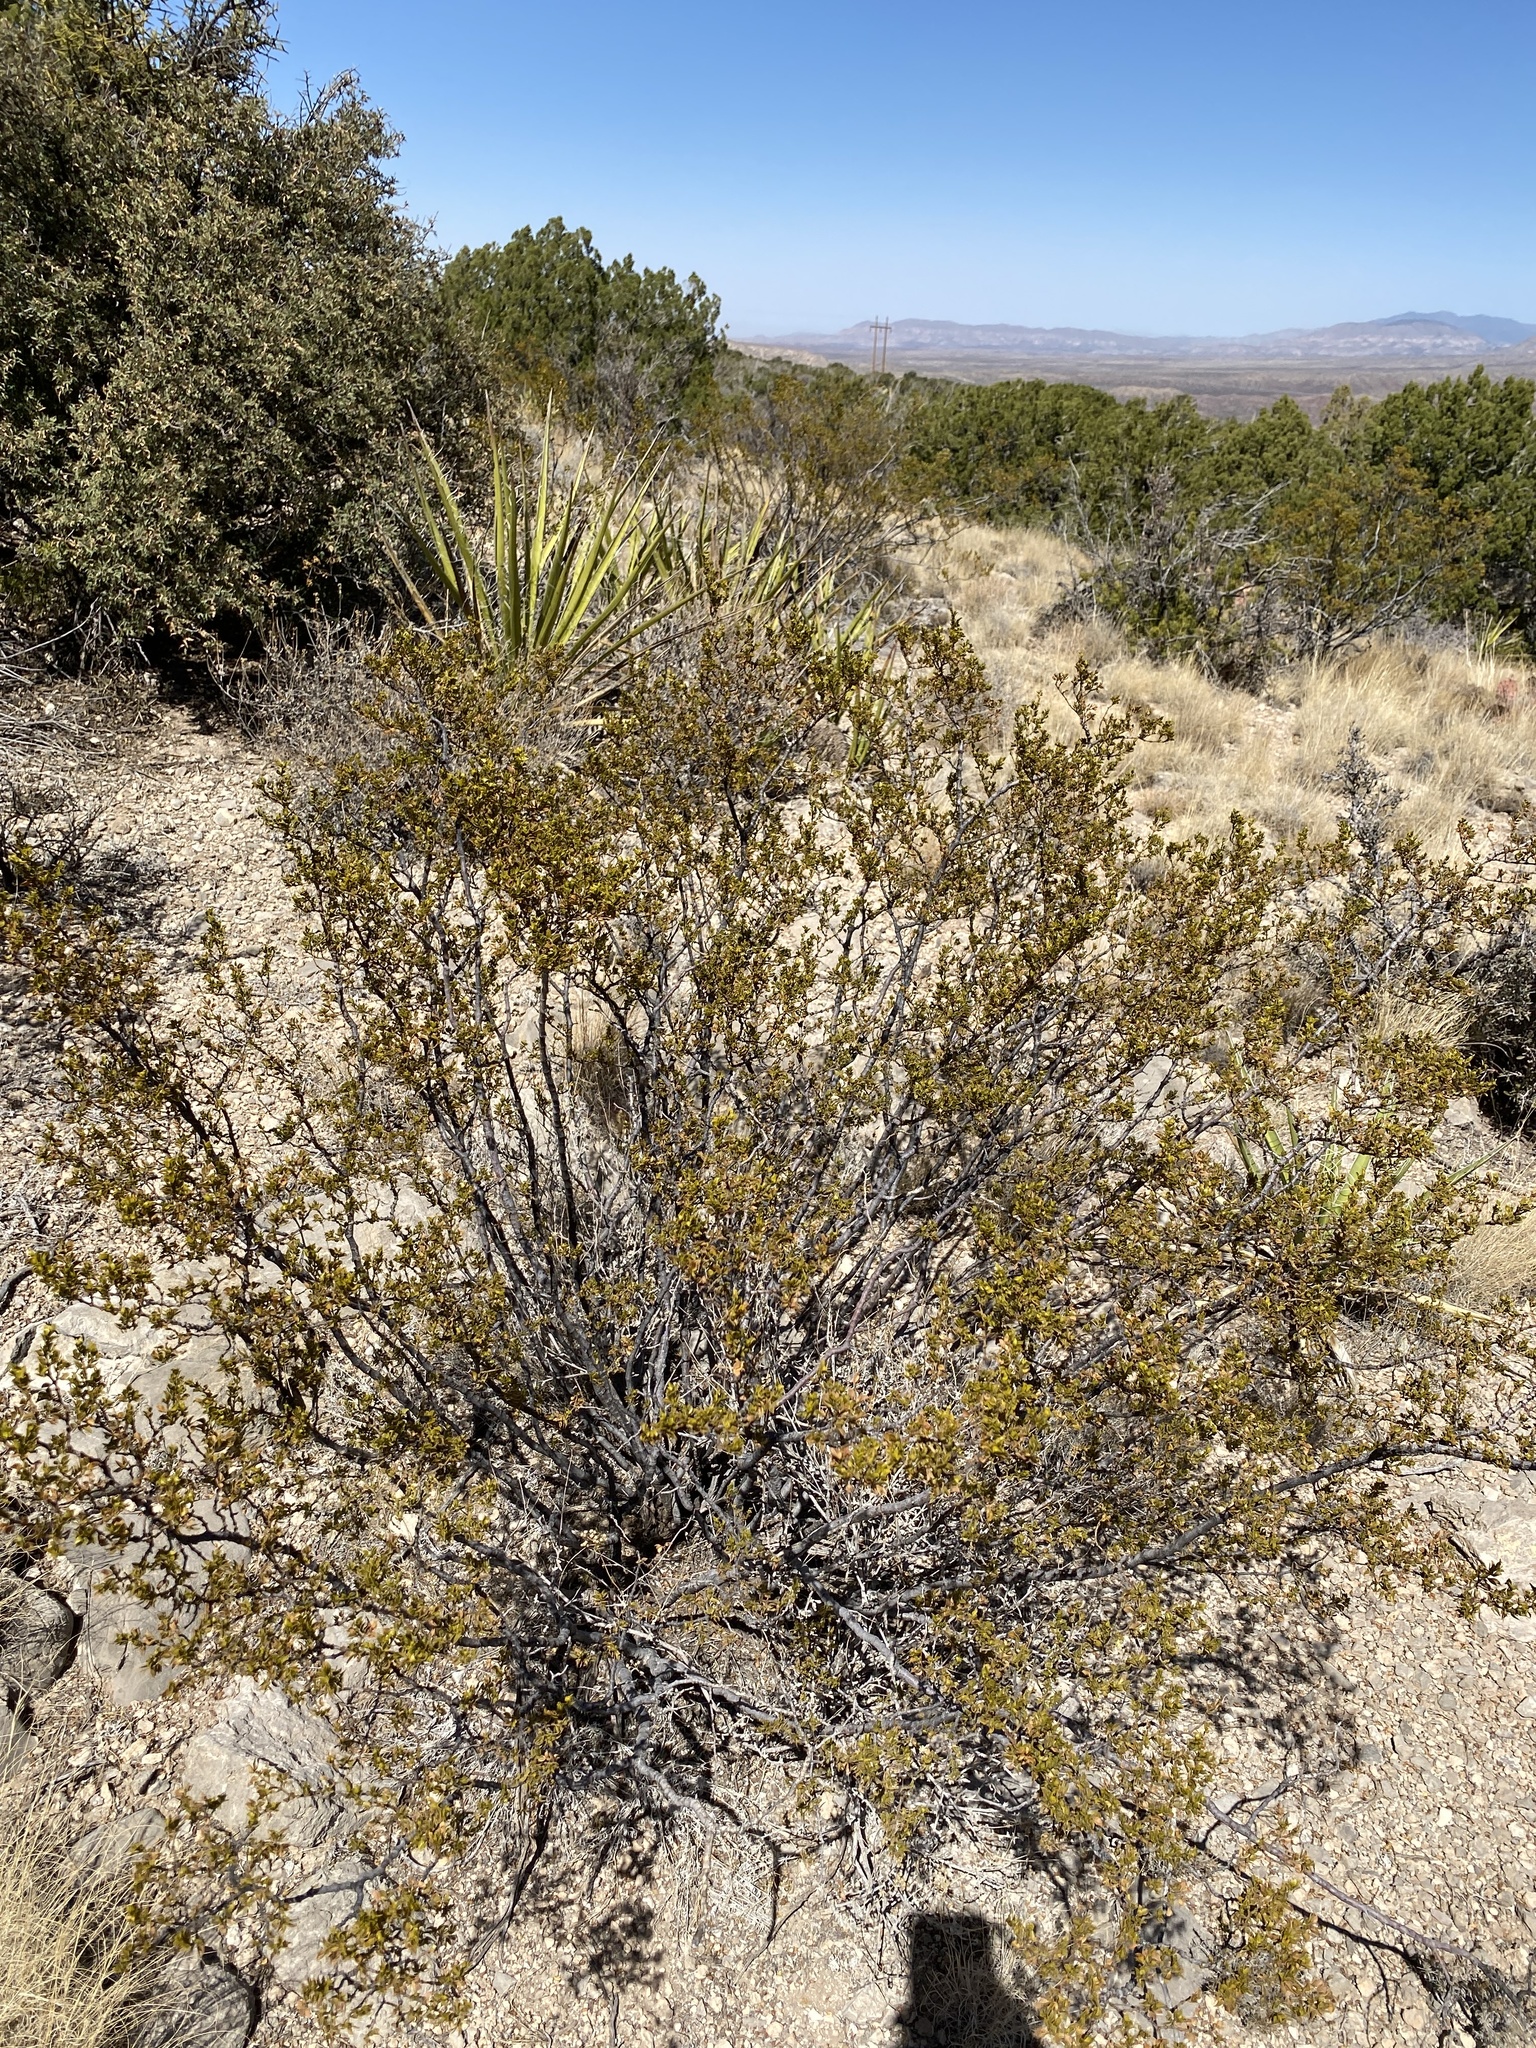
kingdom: Plantae
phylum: Tracheophyta
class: Magnoliopsida
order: Zygophyllales
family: Zygophyllaceae
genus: Larrea
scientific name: Larrea tridentata
